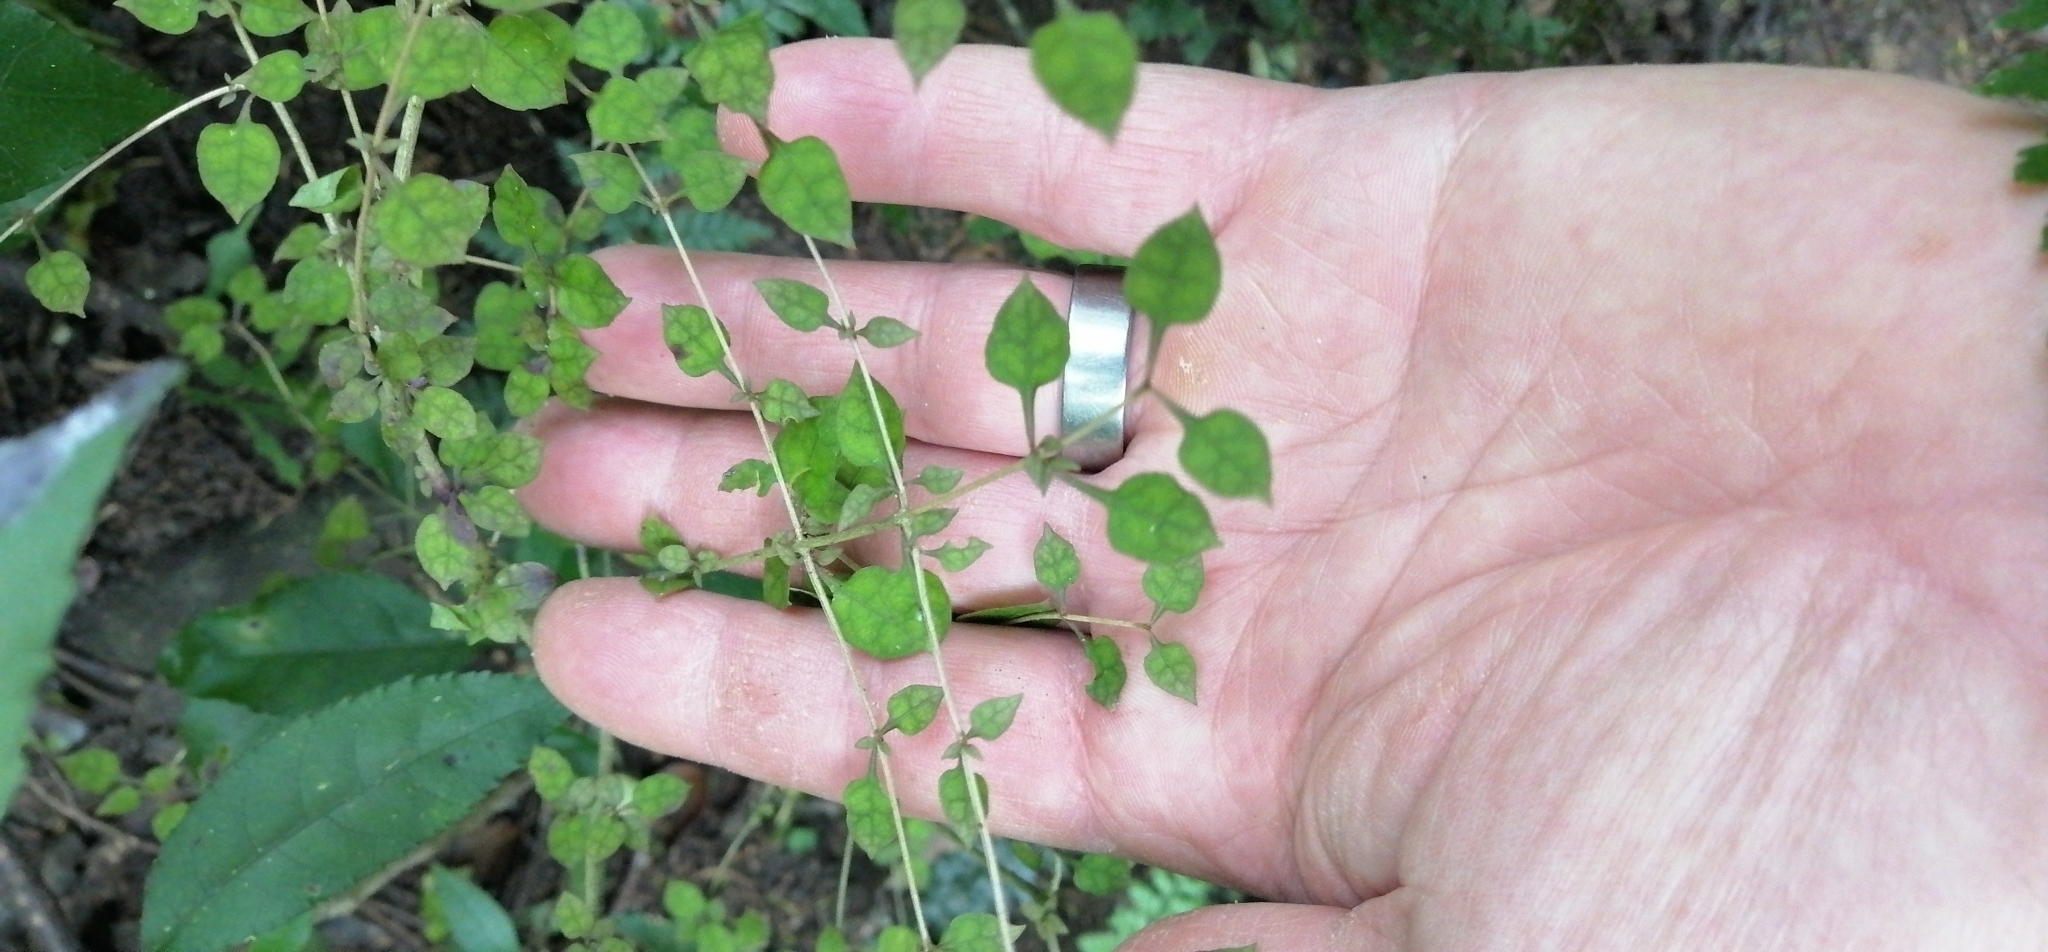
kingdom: Plantae
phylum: Tracheophyta
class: Magnoliopsida
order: Gentianales
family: Rubiaceae
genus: Coprosma
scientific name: Coprosma areolata
